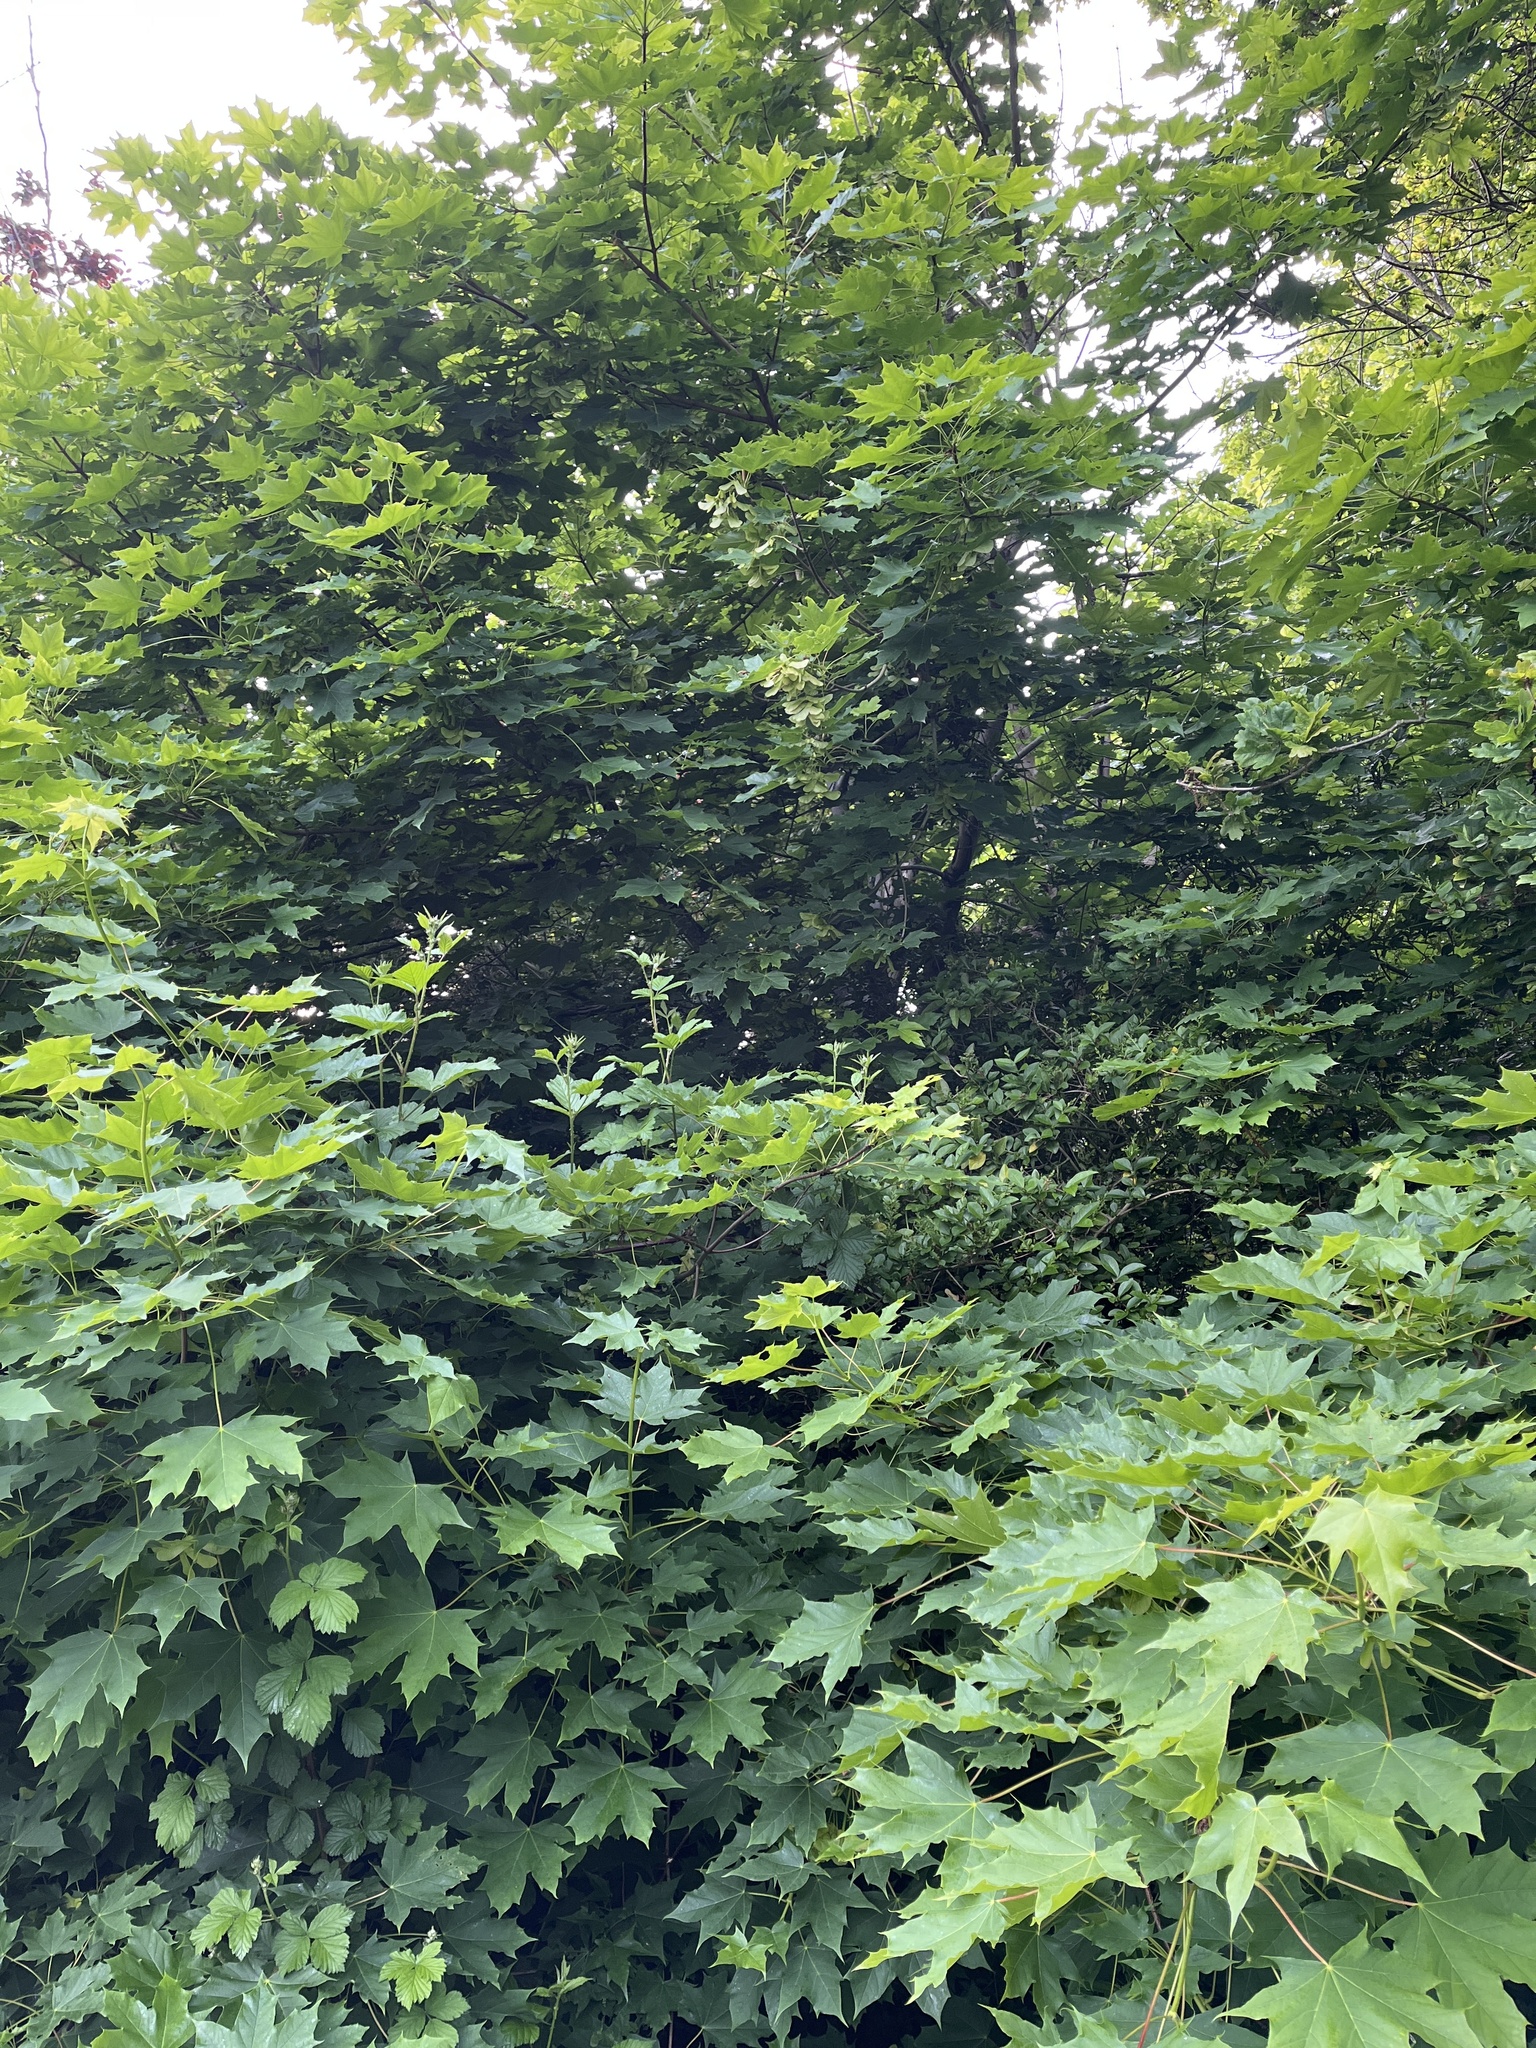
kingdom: Plantae
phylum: Tracheophyta
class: Magnoliopsida
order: Sapindales
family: Sapindaceae
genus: Acer
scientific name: Acer platanoides
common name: Norway maple
